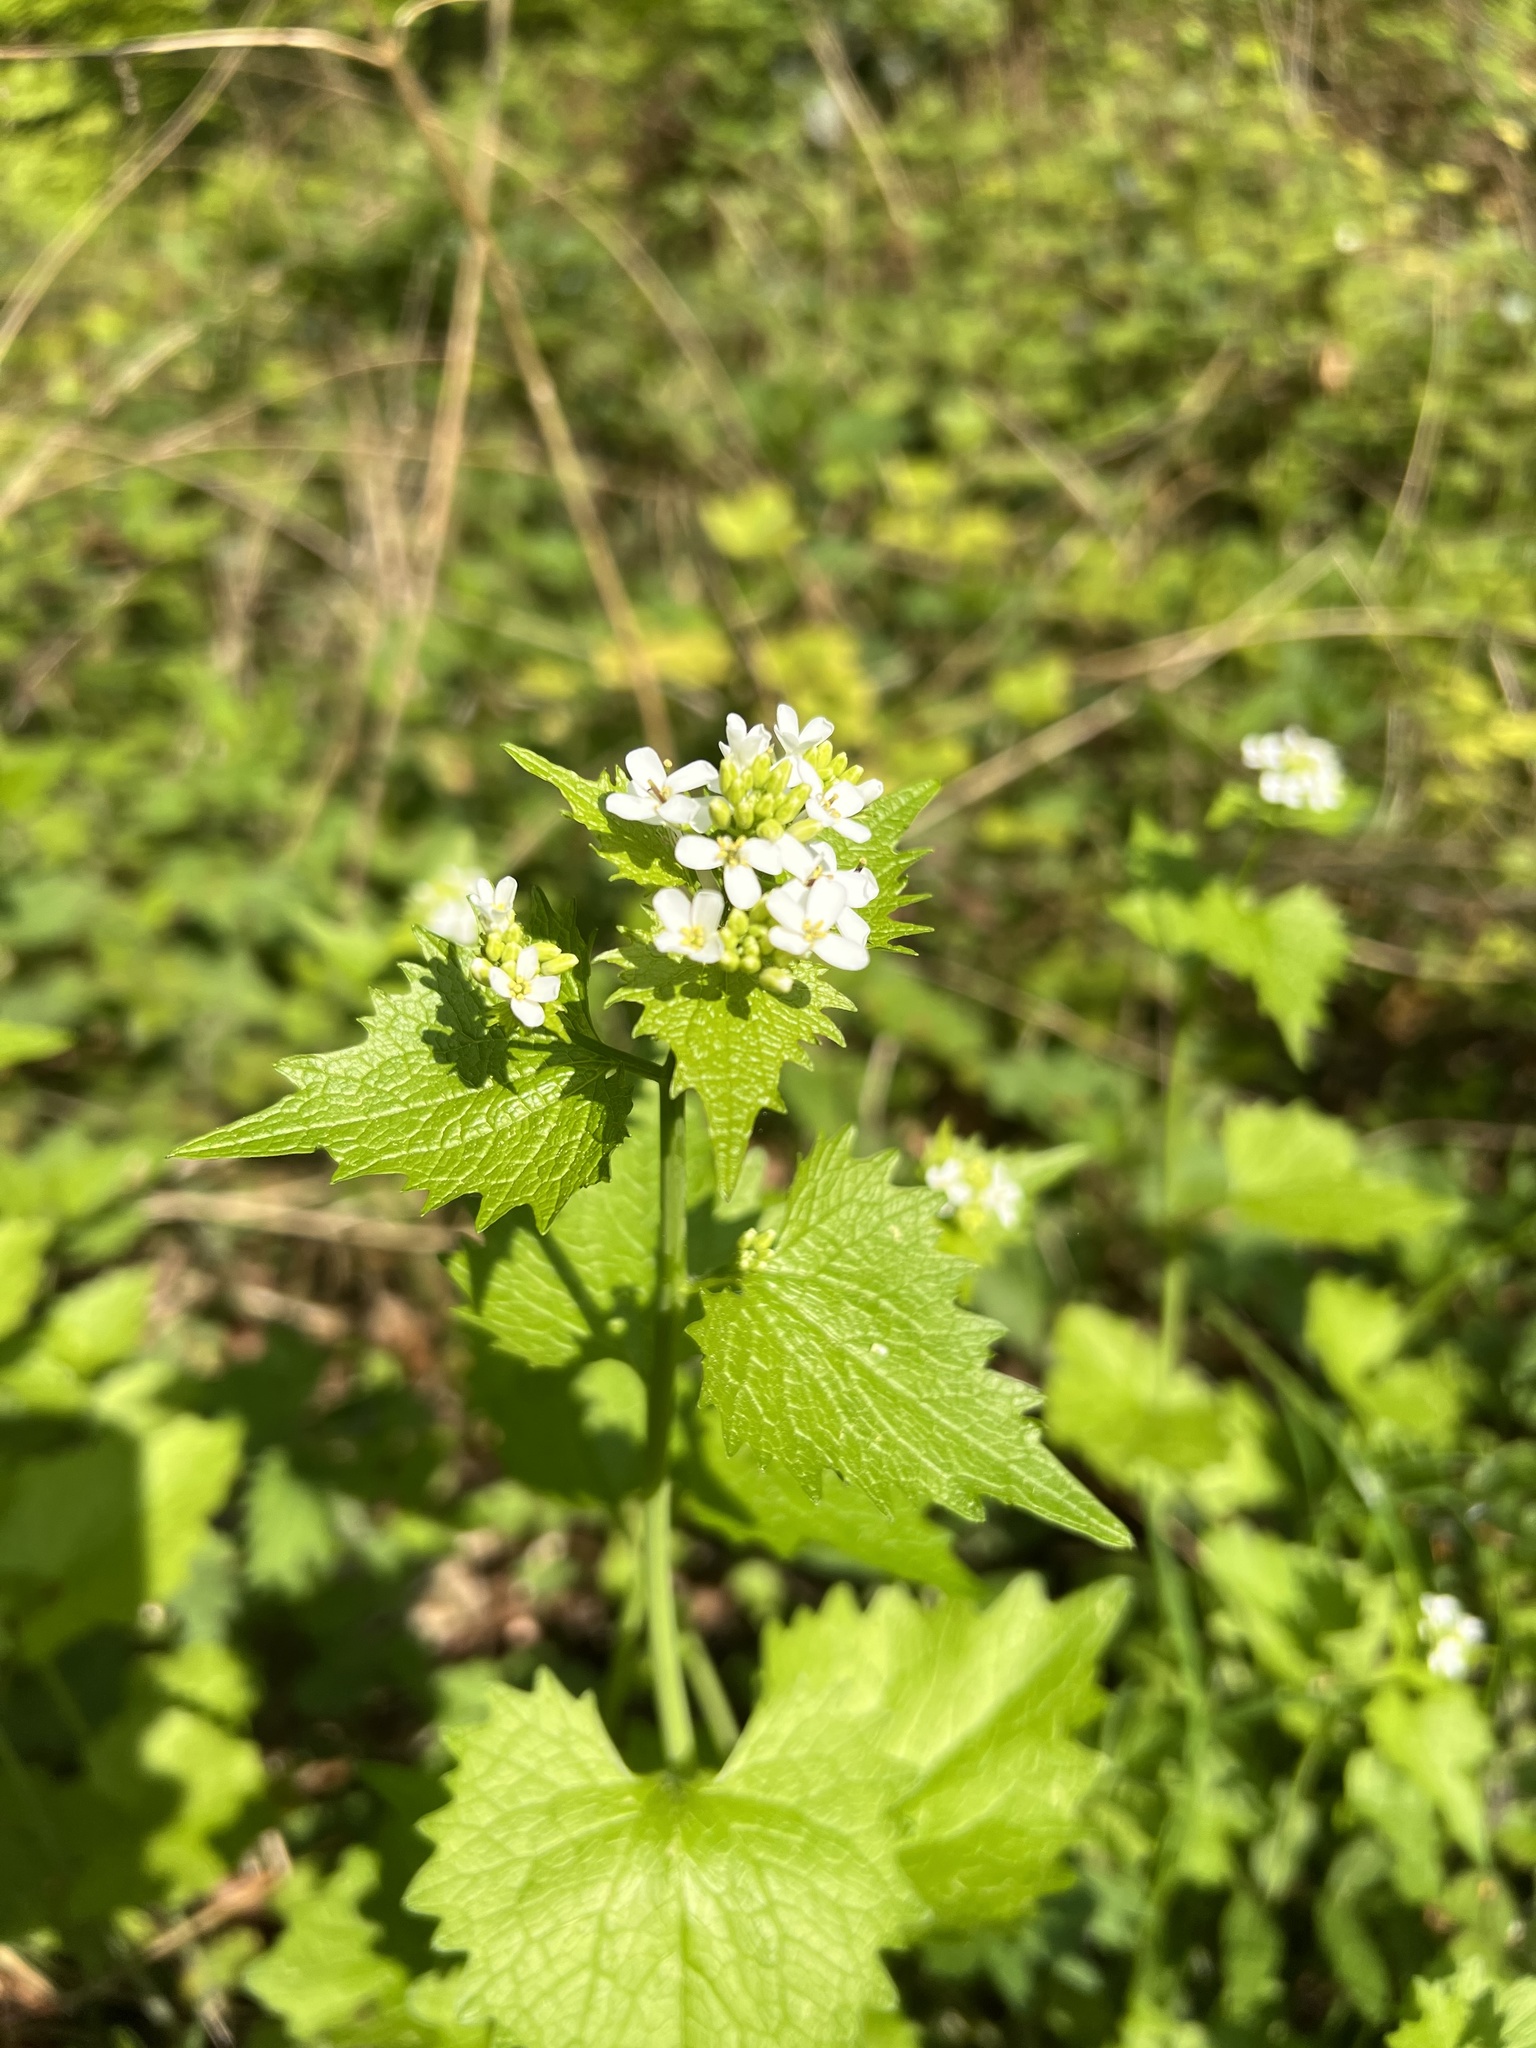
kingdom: Plantae
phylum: Tracheophyta
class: Magnoliopsida
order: Brassicales
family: Brassicaceae
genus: Alliaria
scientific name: Alliaria petiolata
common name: Garlic mustard
